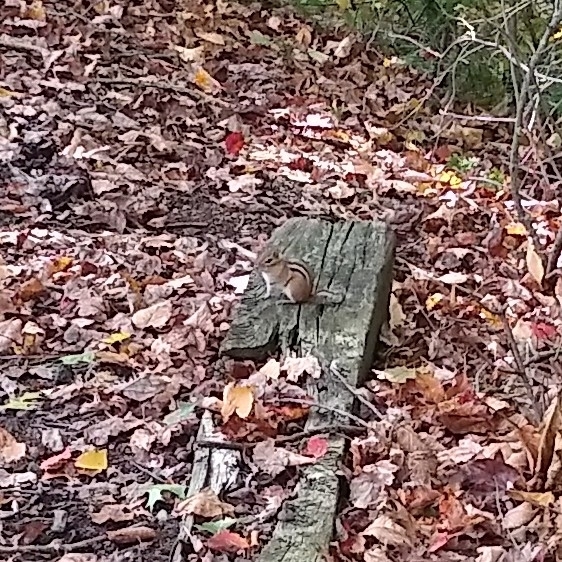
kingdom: Animalia
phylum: Chordata
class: Mammalia
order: Rodentia
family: Sciuridae
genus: Tamias
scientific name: Tamias striatus
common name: Eastern chipmunk
